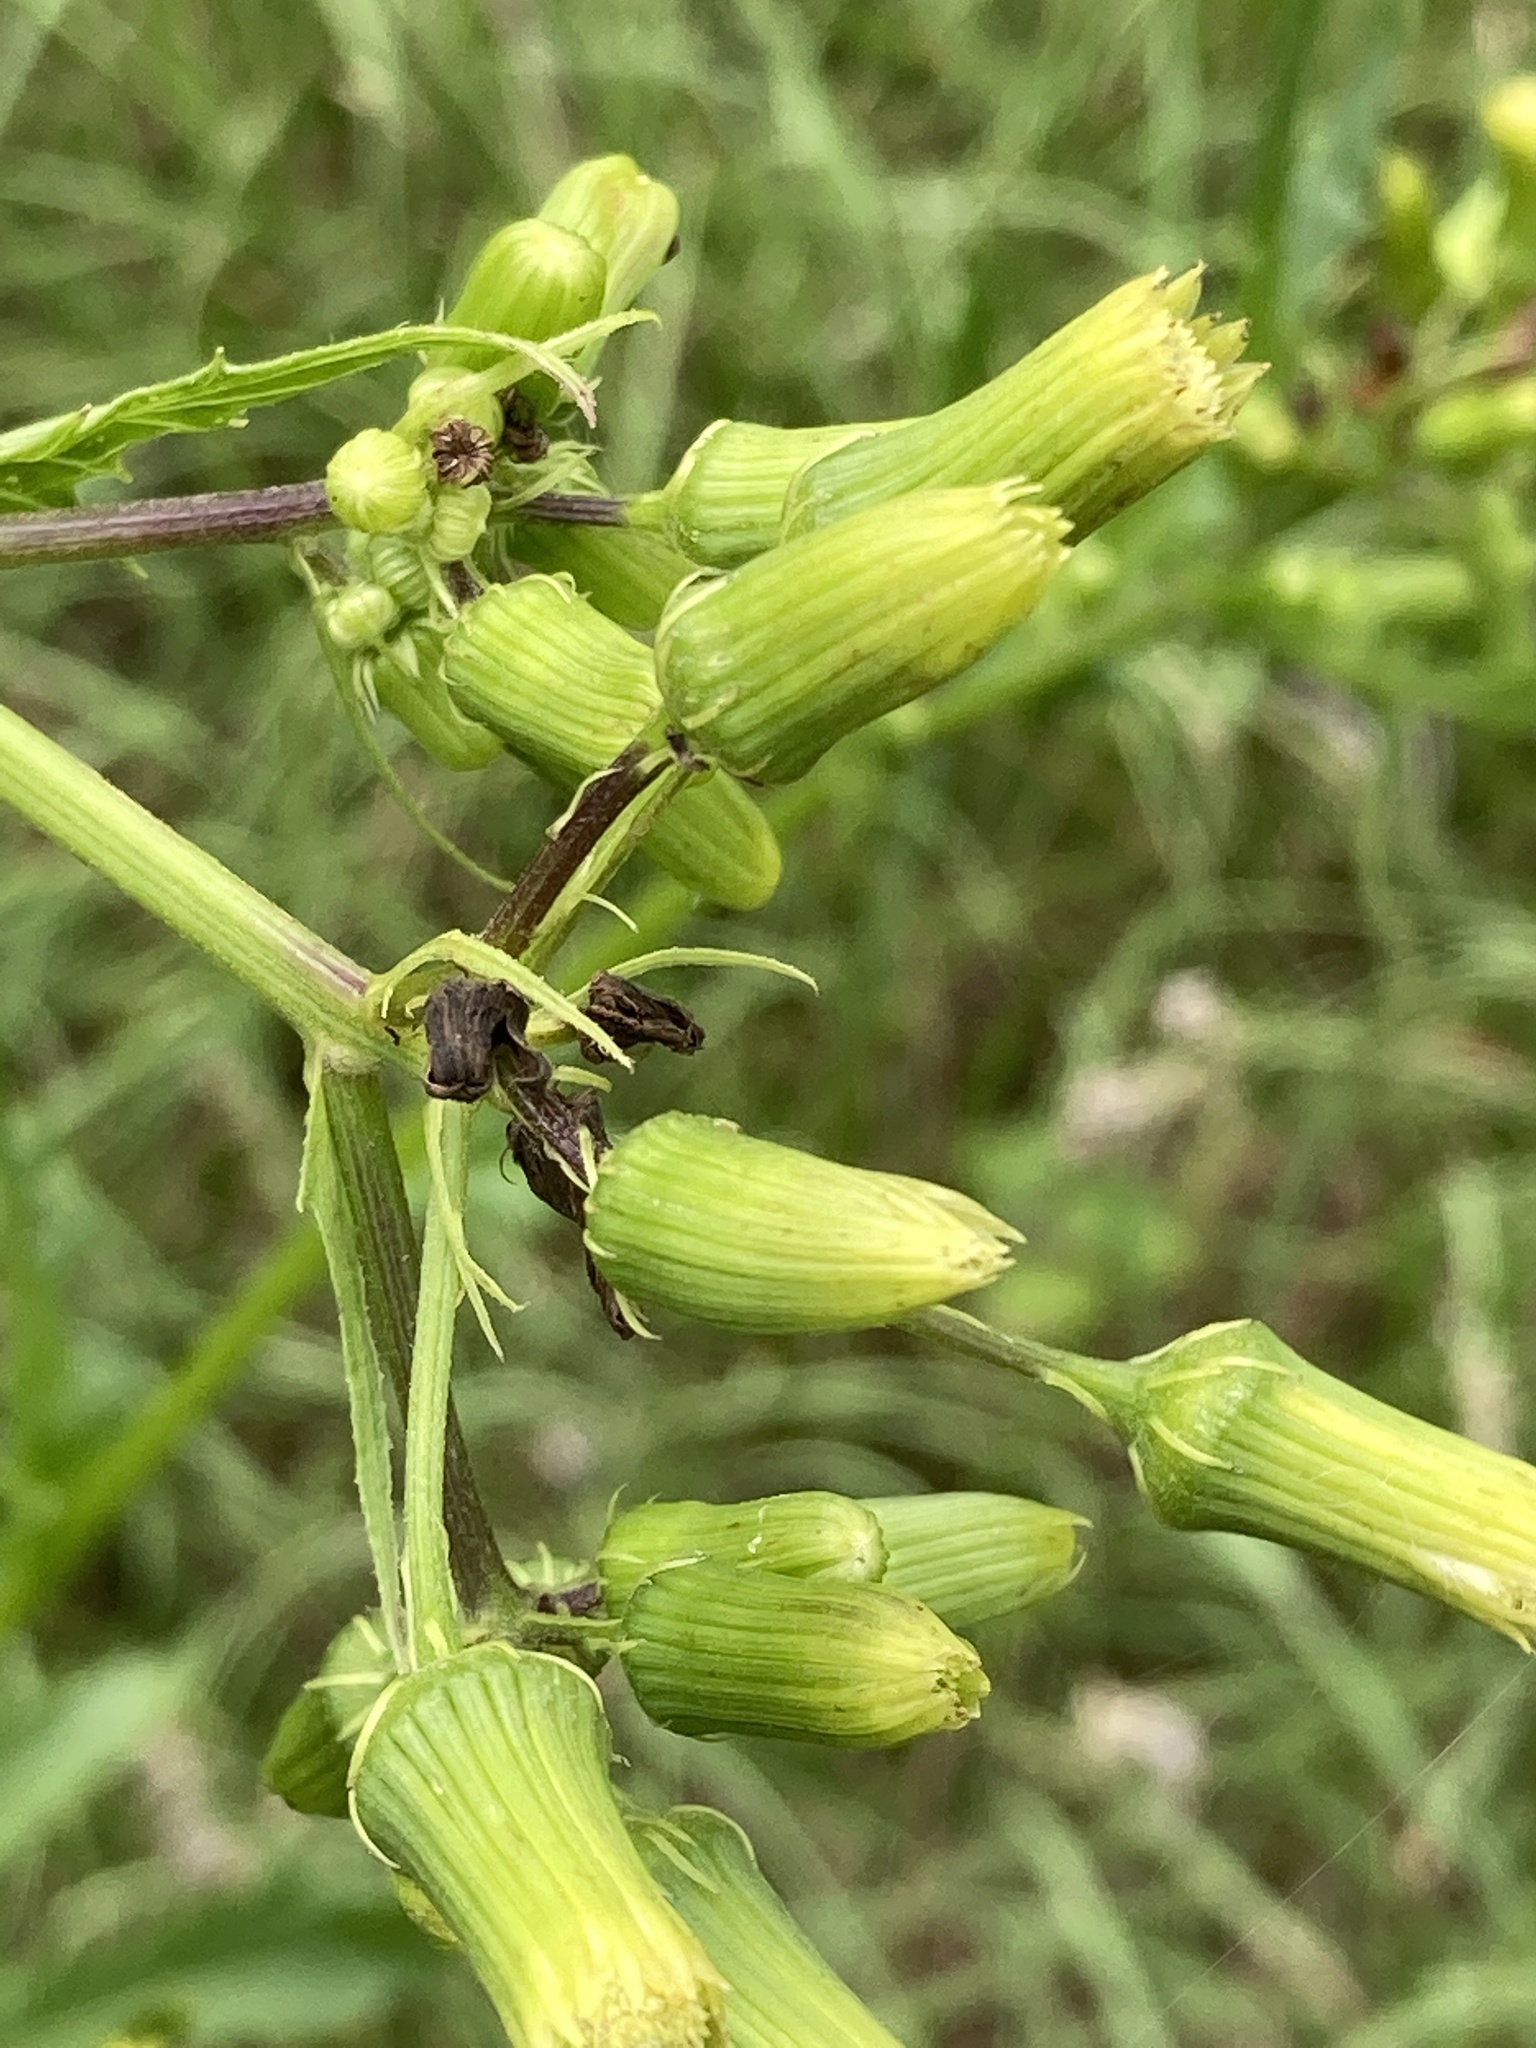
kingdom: Plantae
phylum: Tracheophyta
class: Magnoliopsida
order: Asterales
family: Asteraceae
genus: Erechtites
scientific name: Erechtites hieraciifolius
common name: American burnweed
